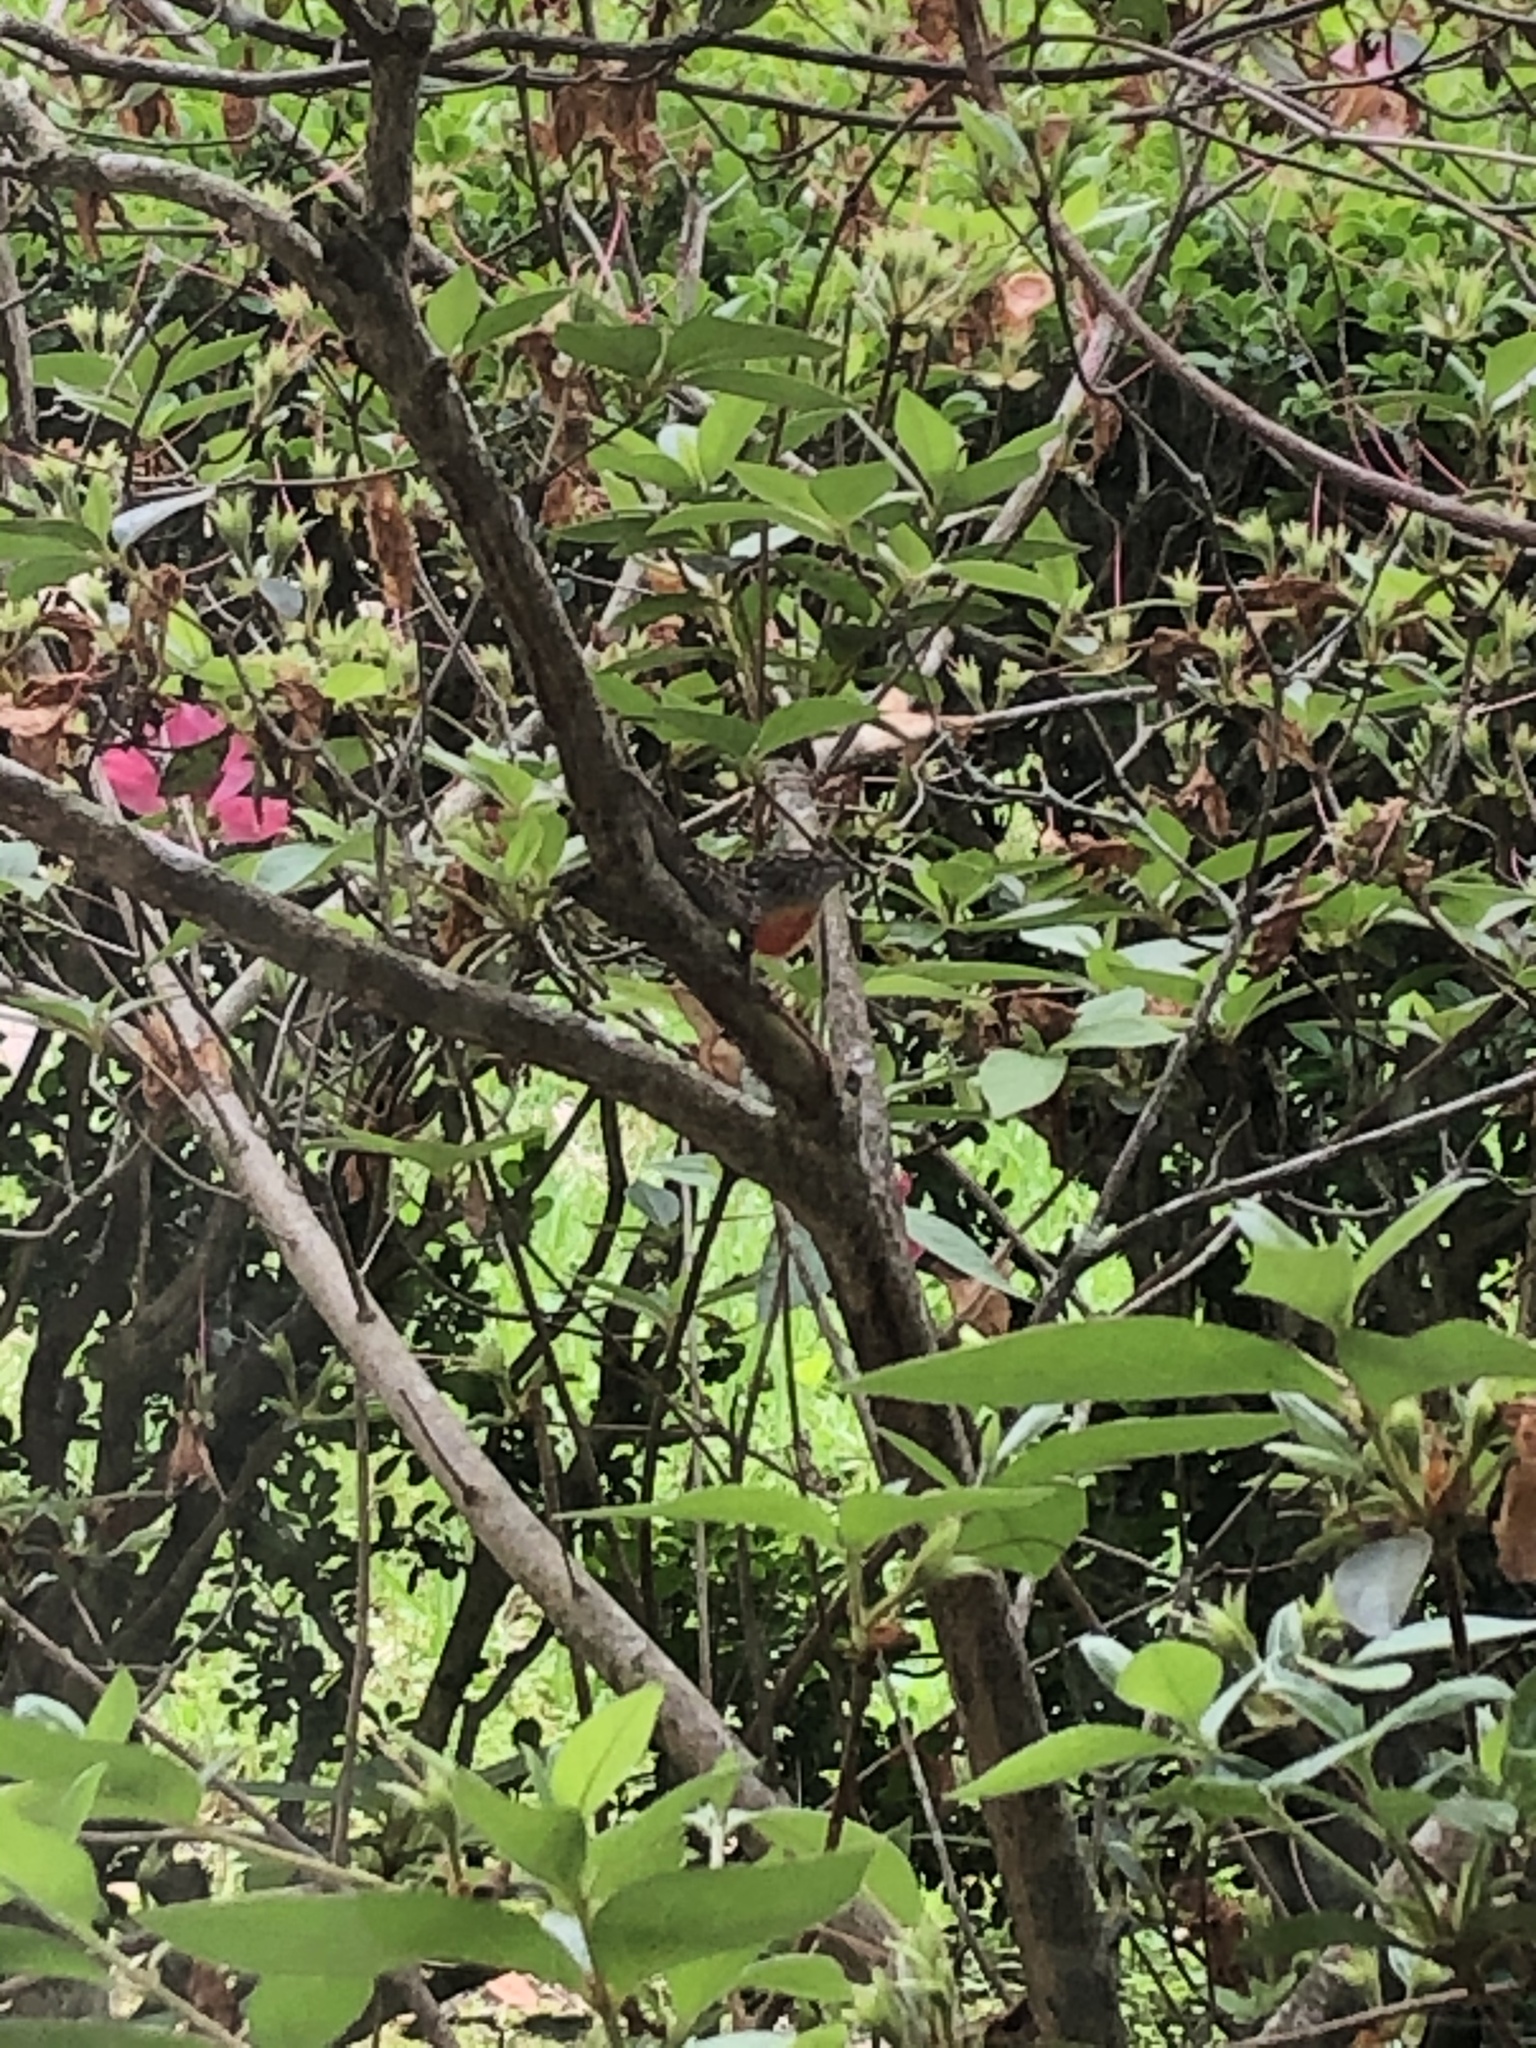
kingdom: Animalia
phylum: Chordata
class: Squamata
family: Dactyloidae
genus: Anolis
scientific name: Anolis sagrei
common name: Brown anole
